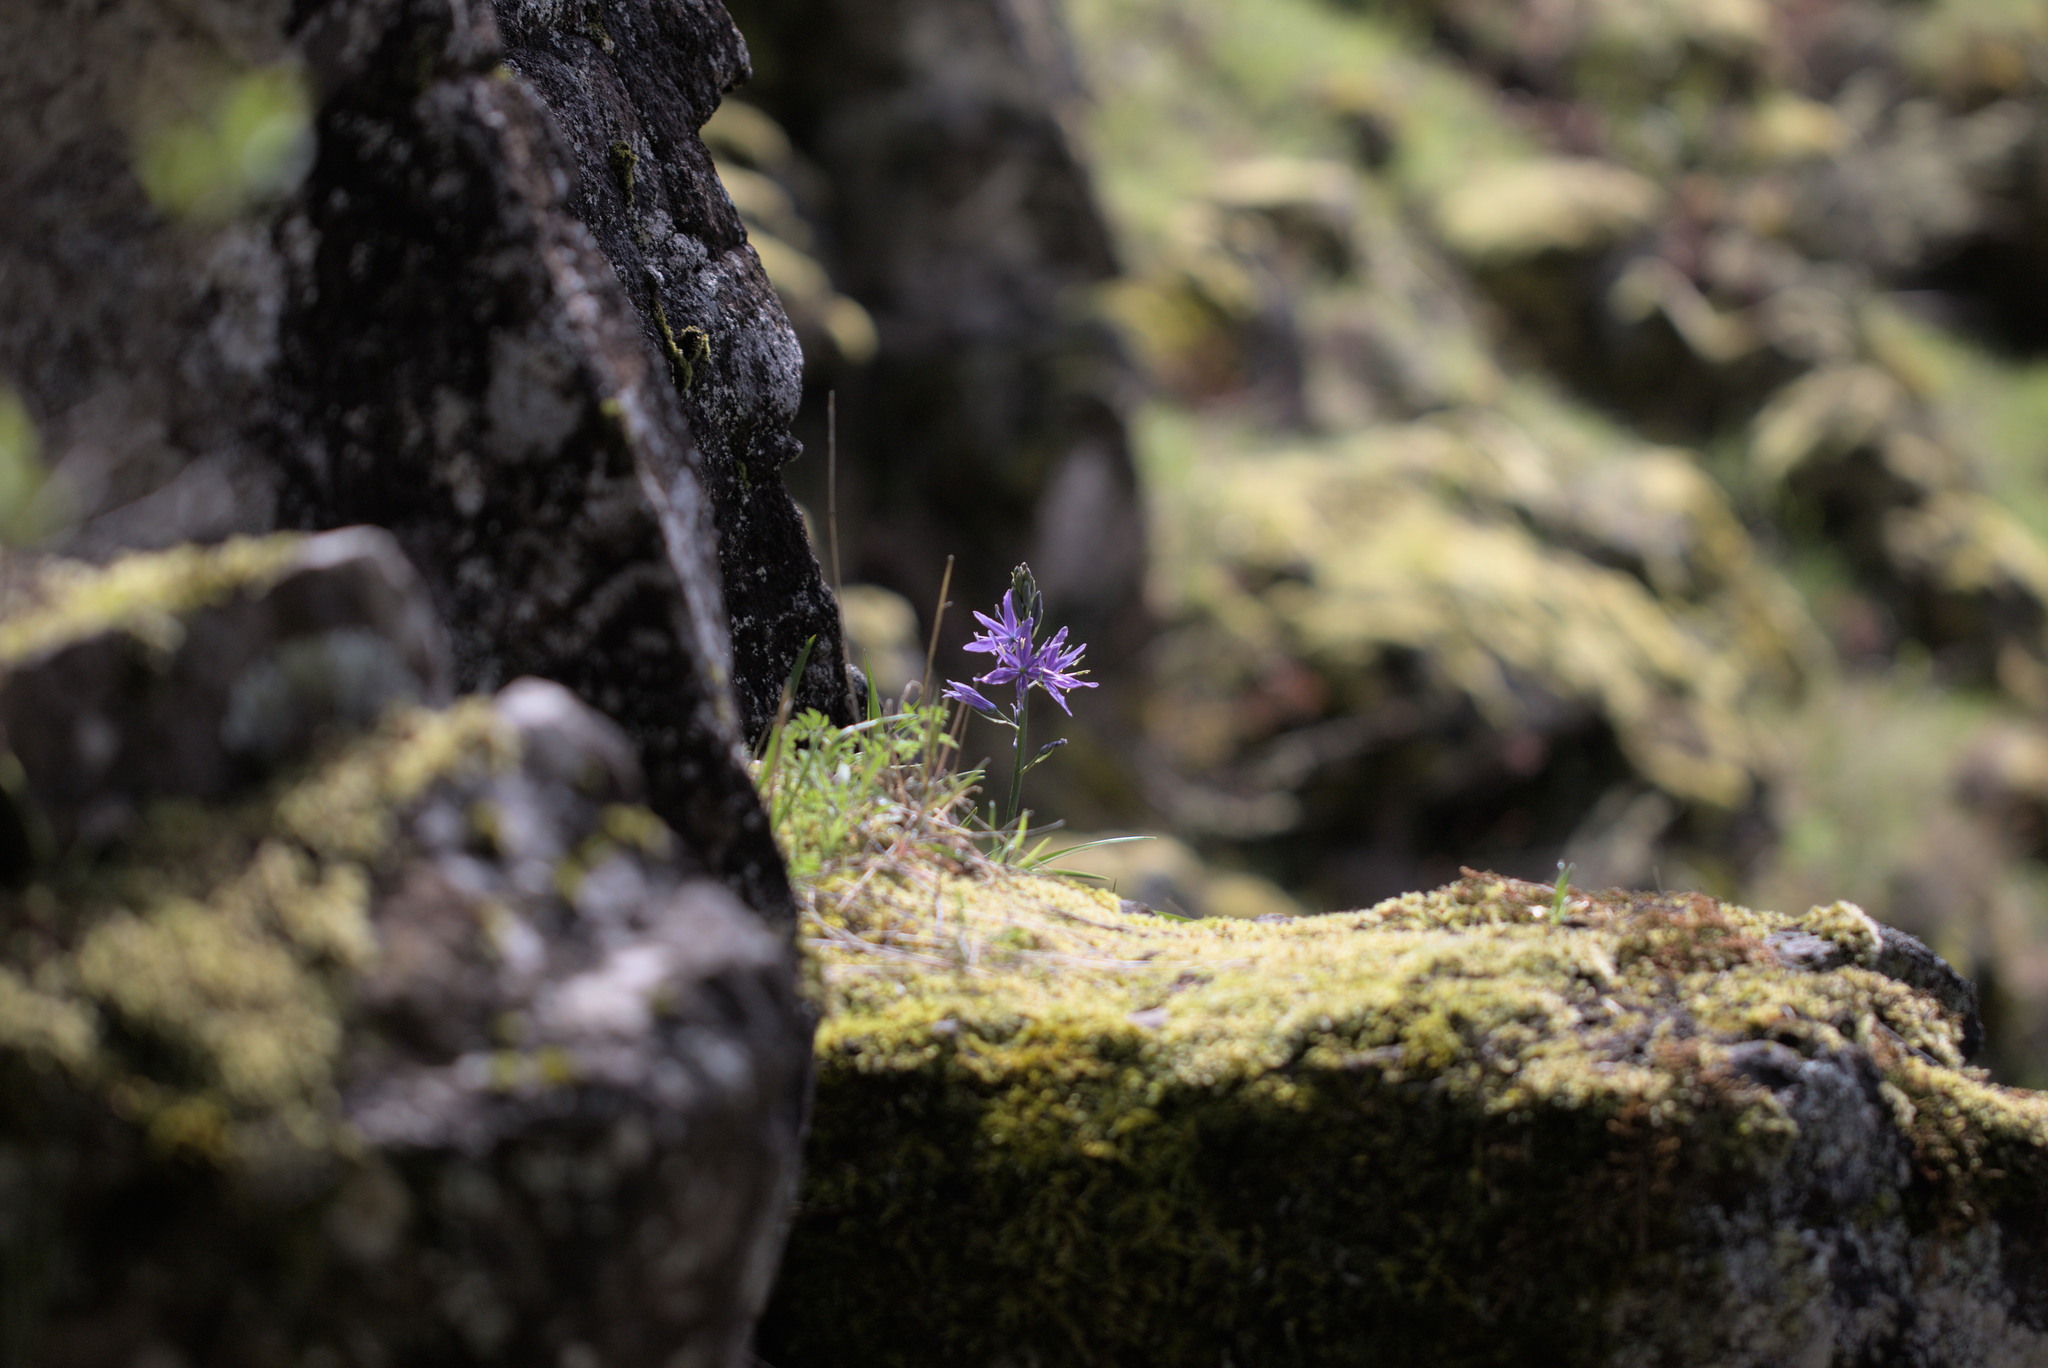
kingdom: Plantae
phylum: Tracheophyta
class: Liliopsida
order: Asparagales
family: Asparagaceae
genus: Camassia
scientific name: Camassia leichtlinii
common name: Leichtlin's camas
